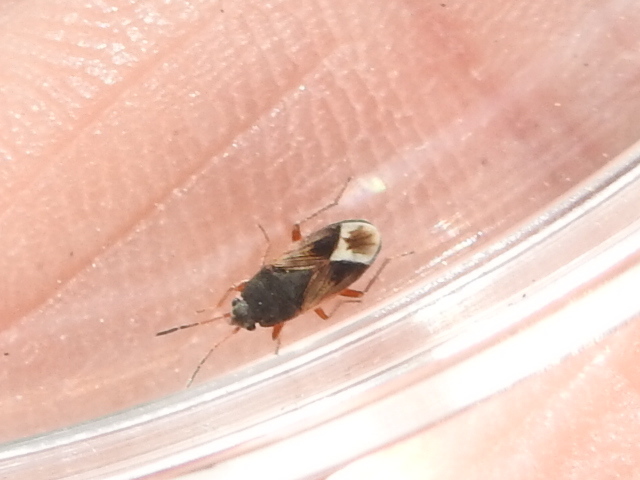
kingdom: Animalia
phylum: Arthropoda
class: Insecta
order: Hemiptera
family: Rhyparochromidae
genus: Malezonotus
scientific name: Malezonotus rufipes
